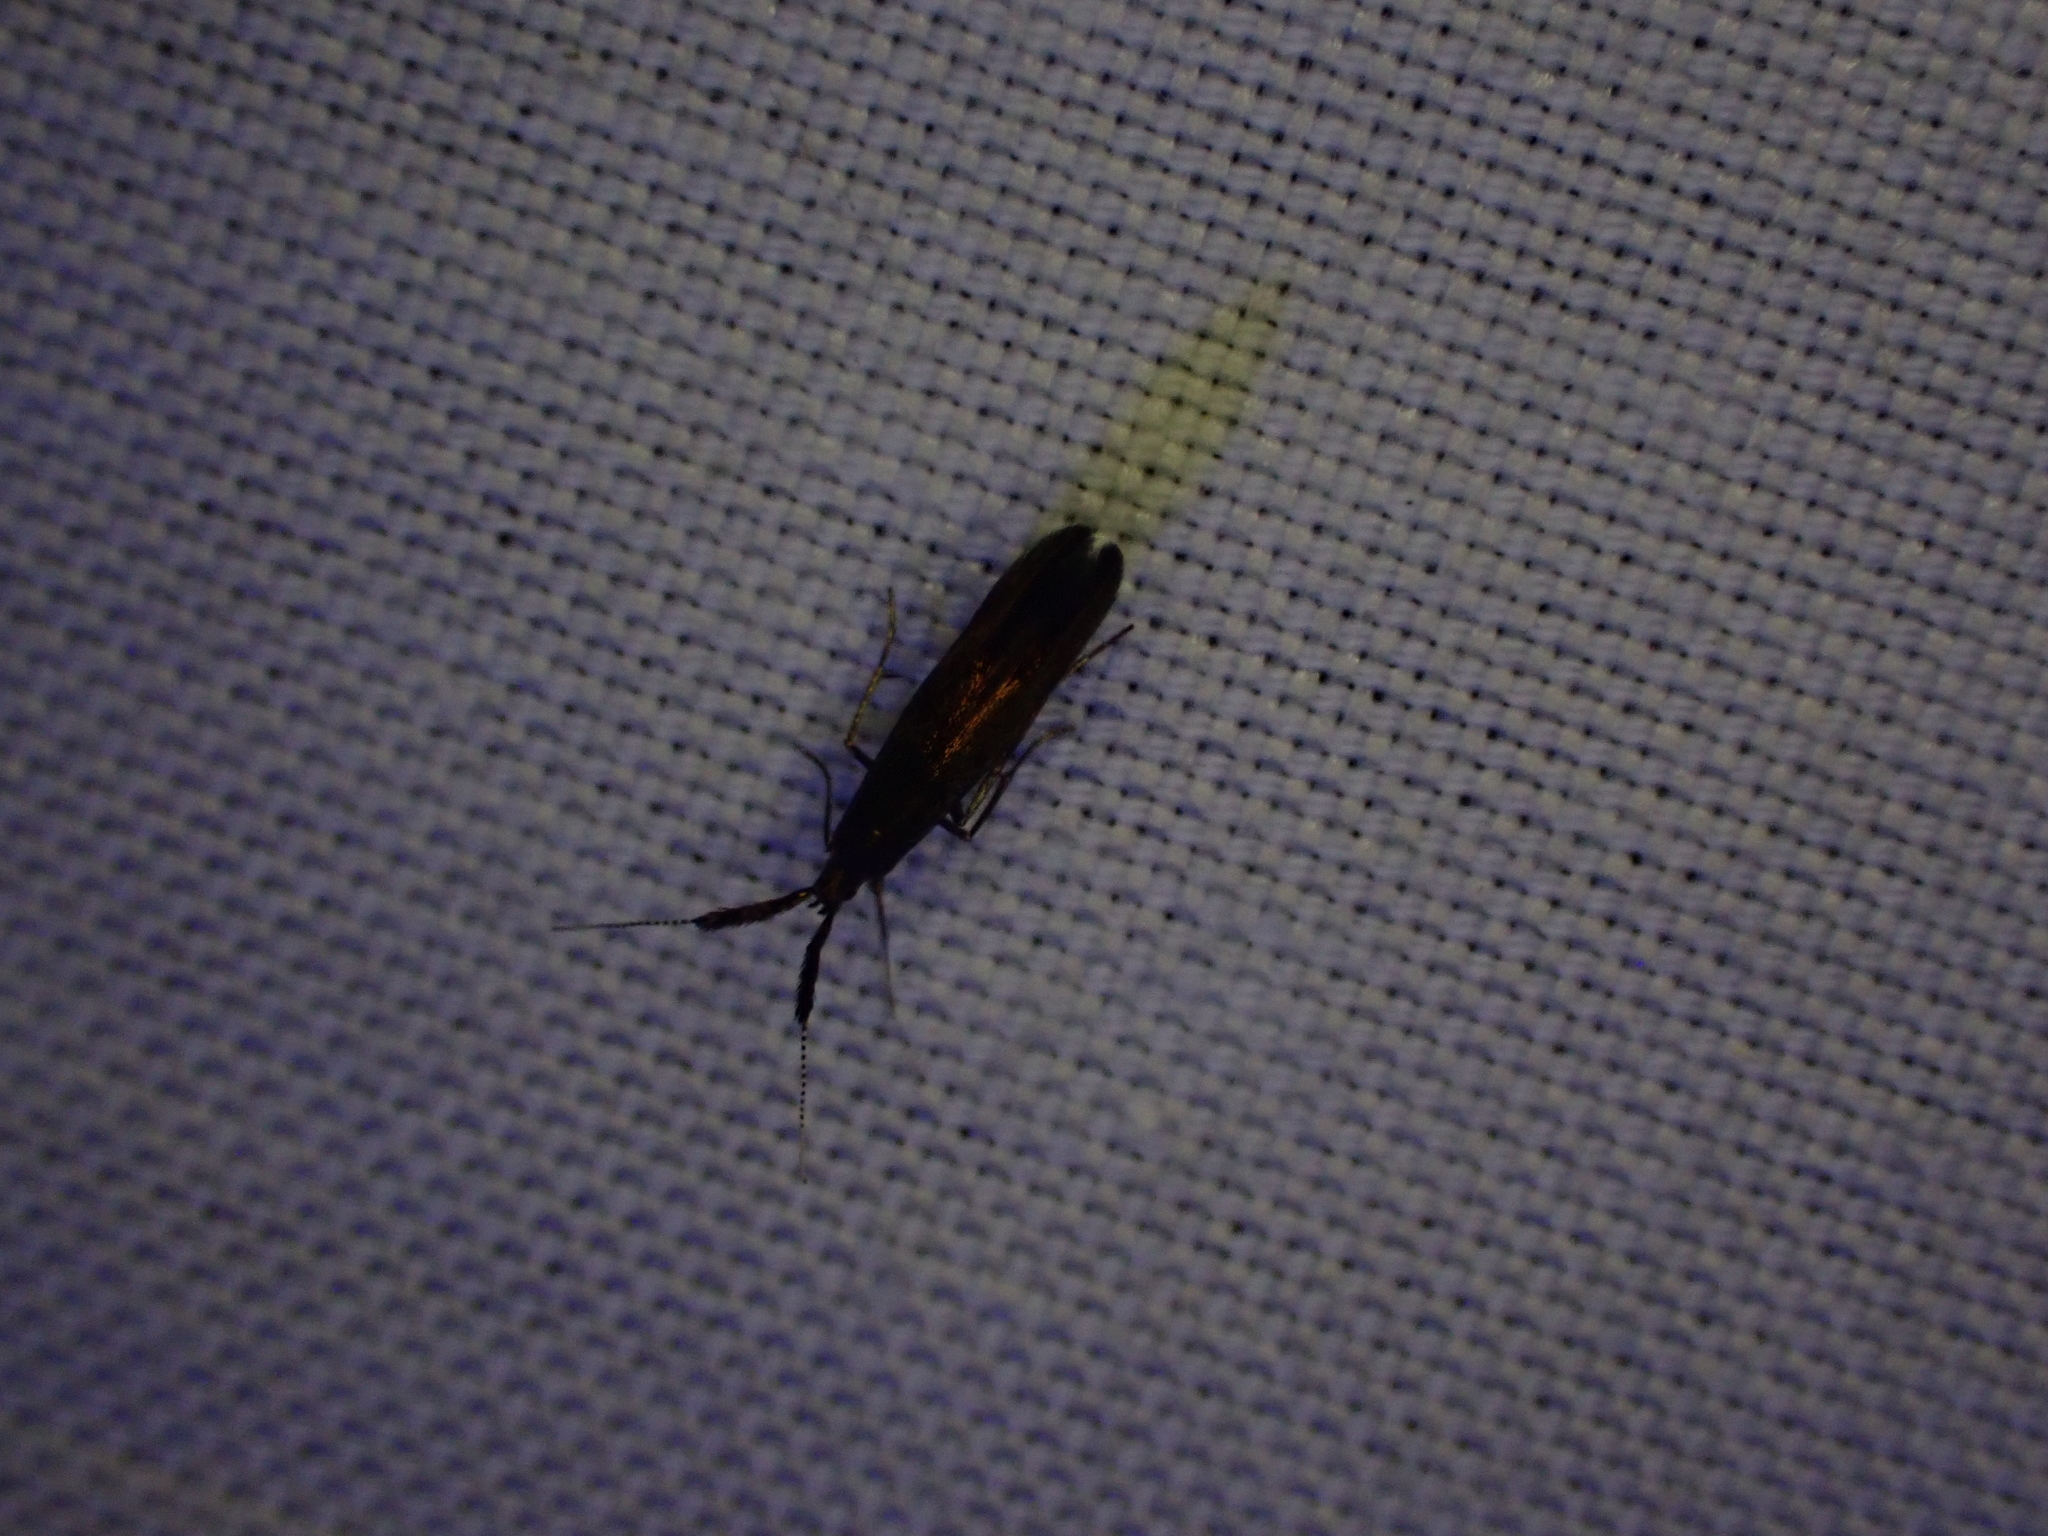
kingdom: Animalia
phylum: Arthropoda
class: Insecta
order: Lepidoptera
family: Coleophoridae
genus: Coleophora
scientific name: Coleophora mayrella
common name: Meadow case-bearer
